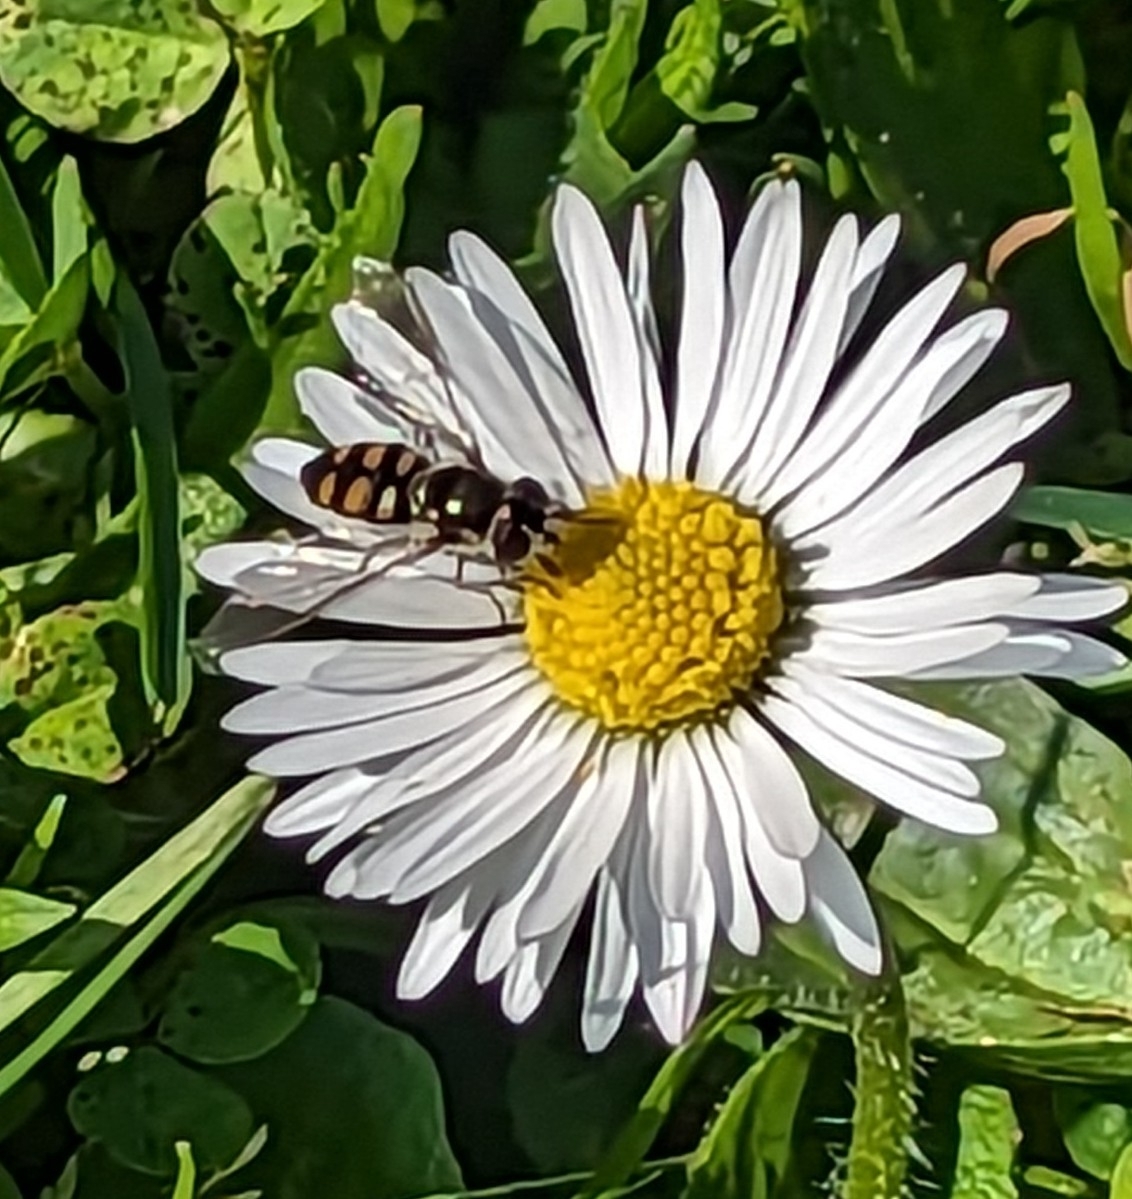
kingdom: Animalia
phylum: Arthropoda
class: Insecta
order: Diptera
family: Syrphidae
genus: Melangyna
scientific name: Melangyna viridiceps
